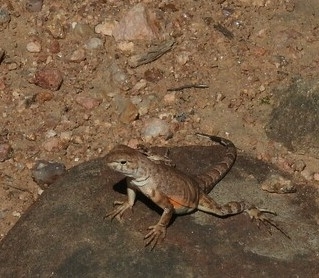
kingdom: Animalia
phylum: Chordata
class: Squamata
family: Phrynosomatidae
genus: Cophosaurus
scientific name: Cophosaurus texanus
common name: Greater earless lizard
